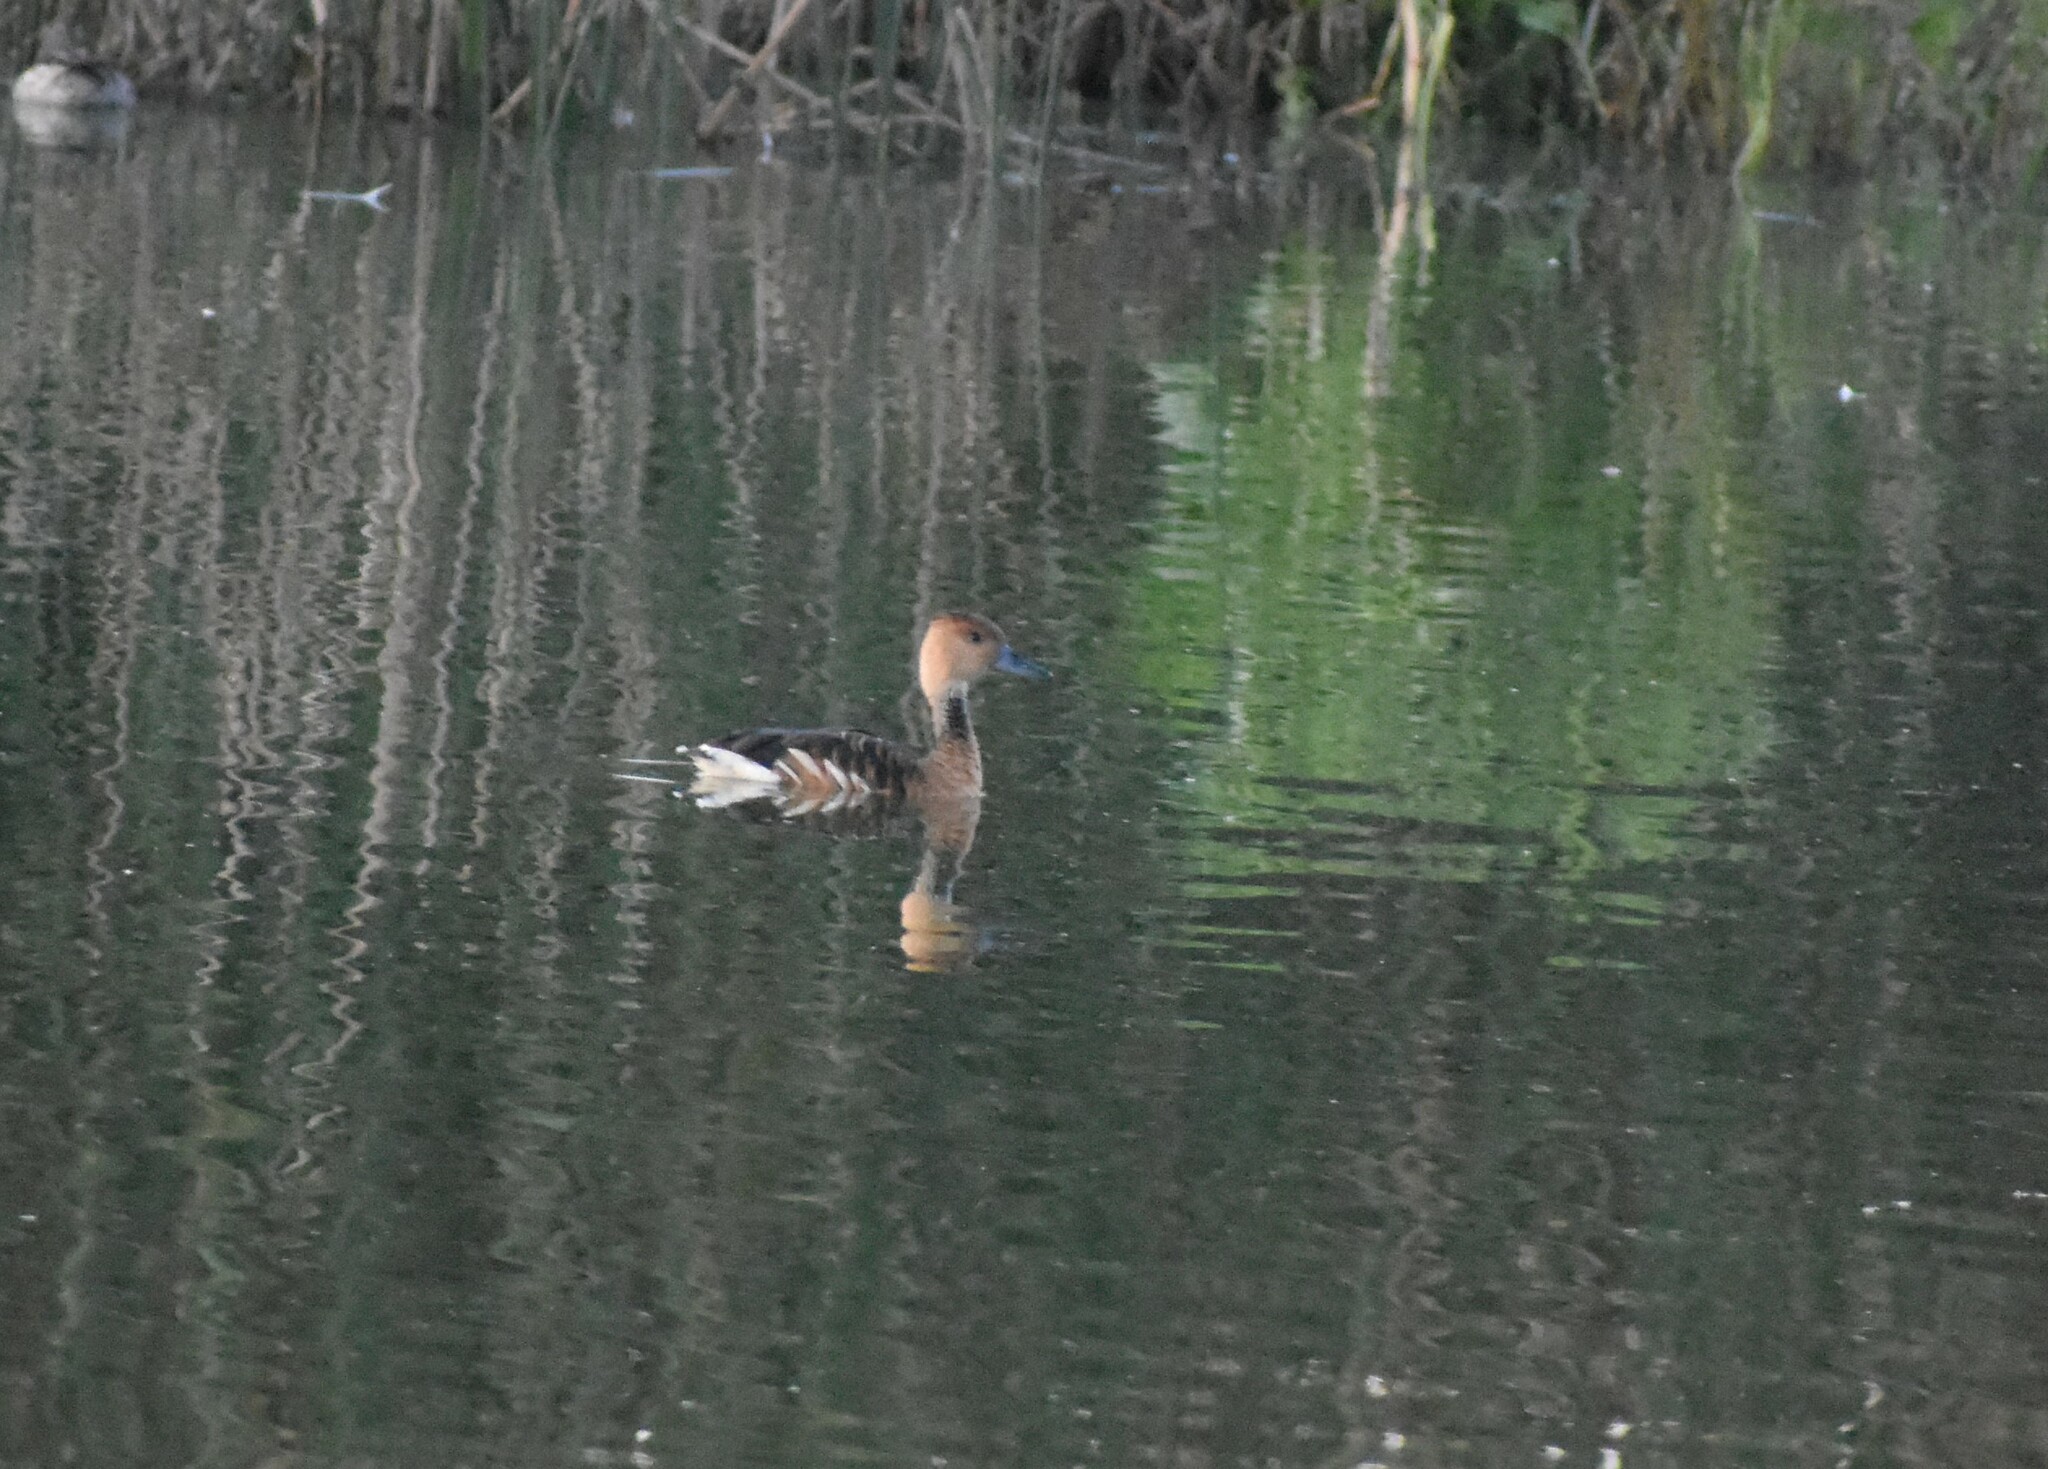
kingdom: Animalia
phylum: Chordata
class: Aves
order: Anseriformes
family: Anatidae
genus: Dendrocygna
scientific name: Dendrocygna bicolor
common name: Fulvous whistling duck
